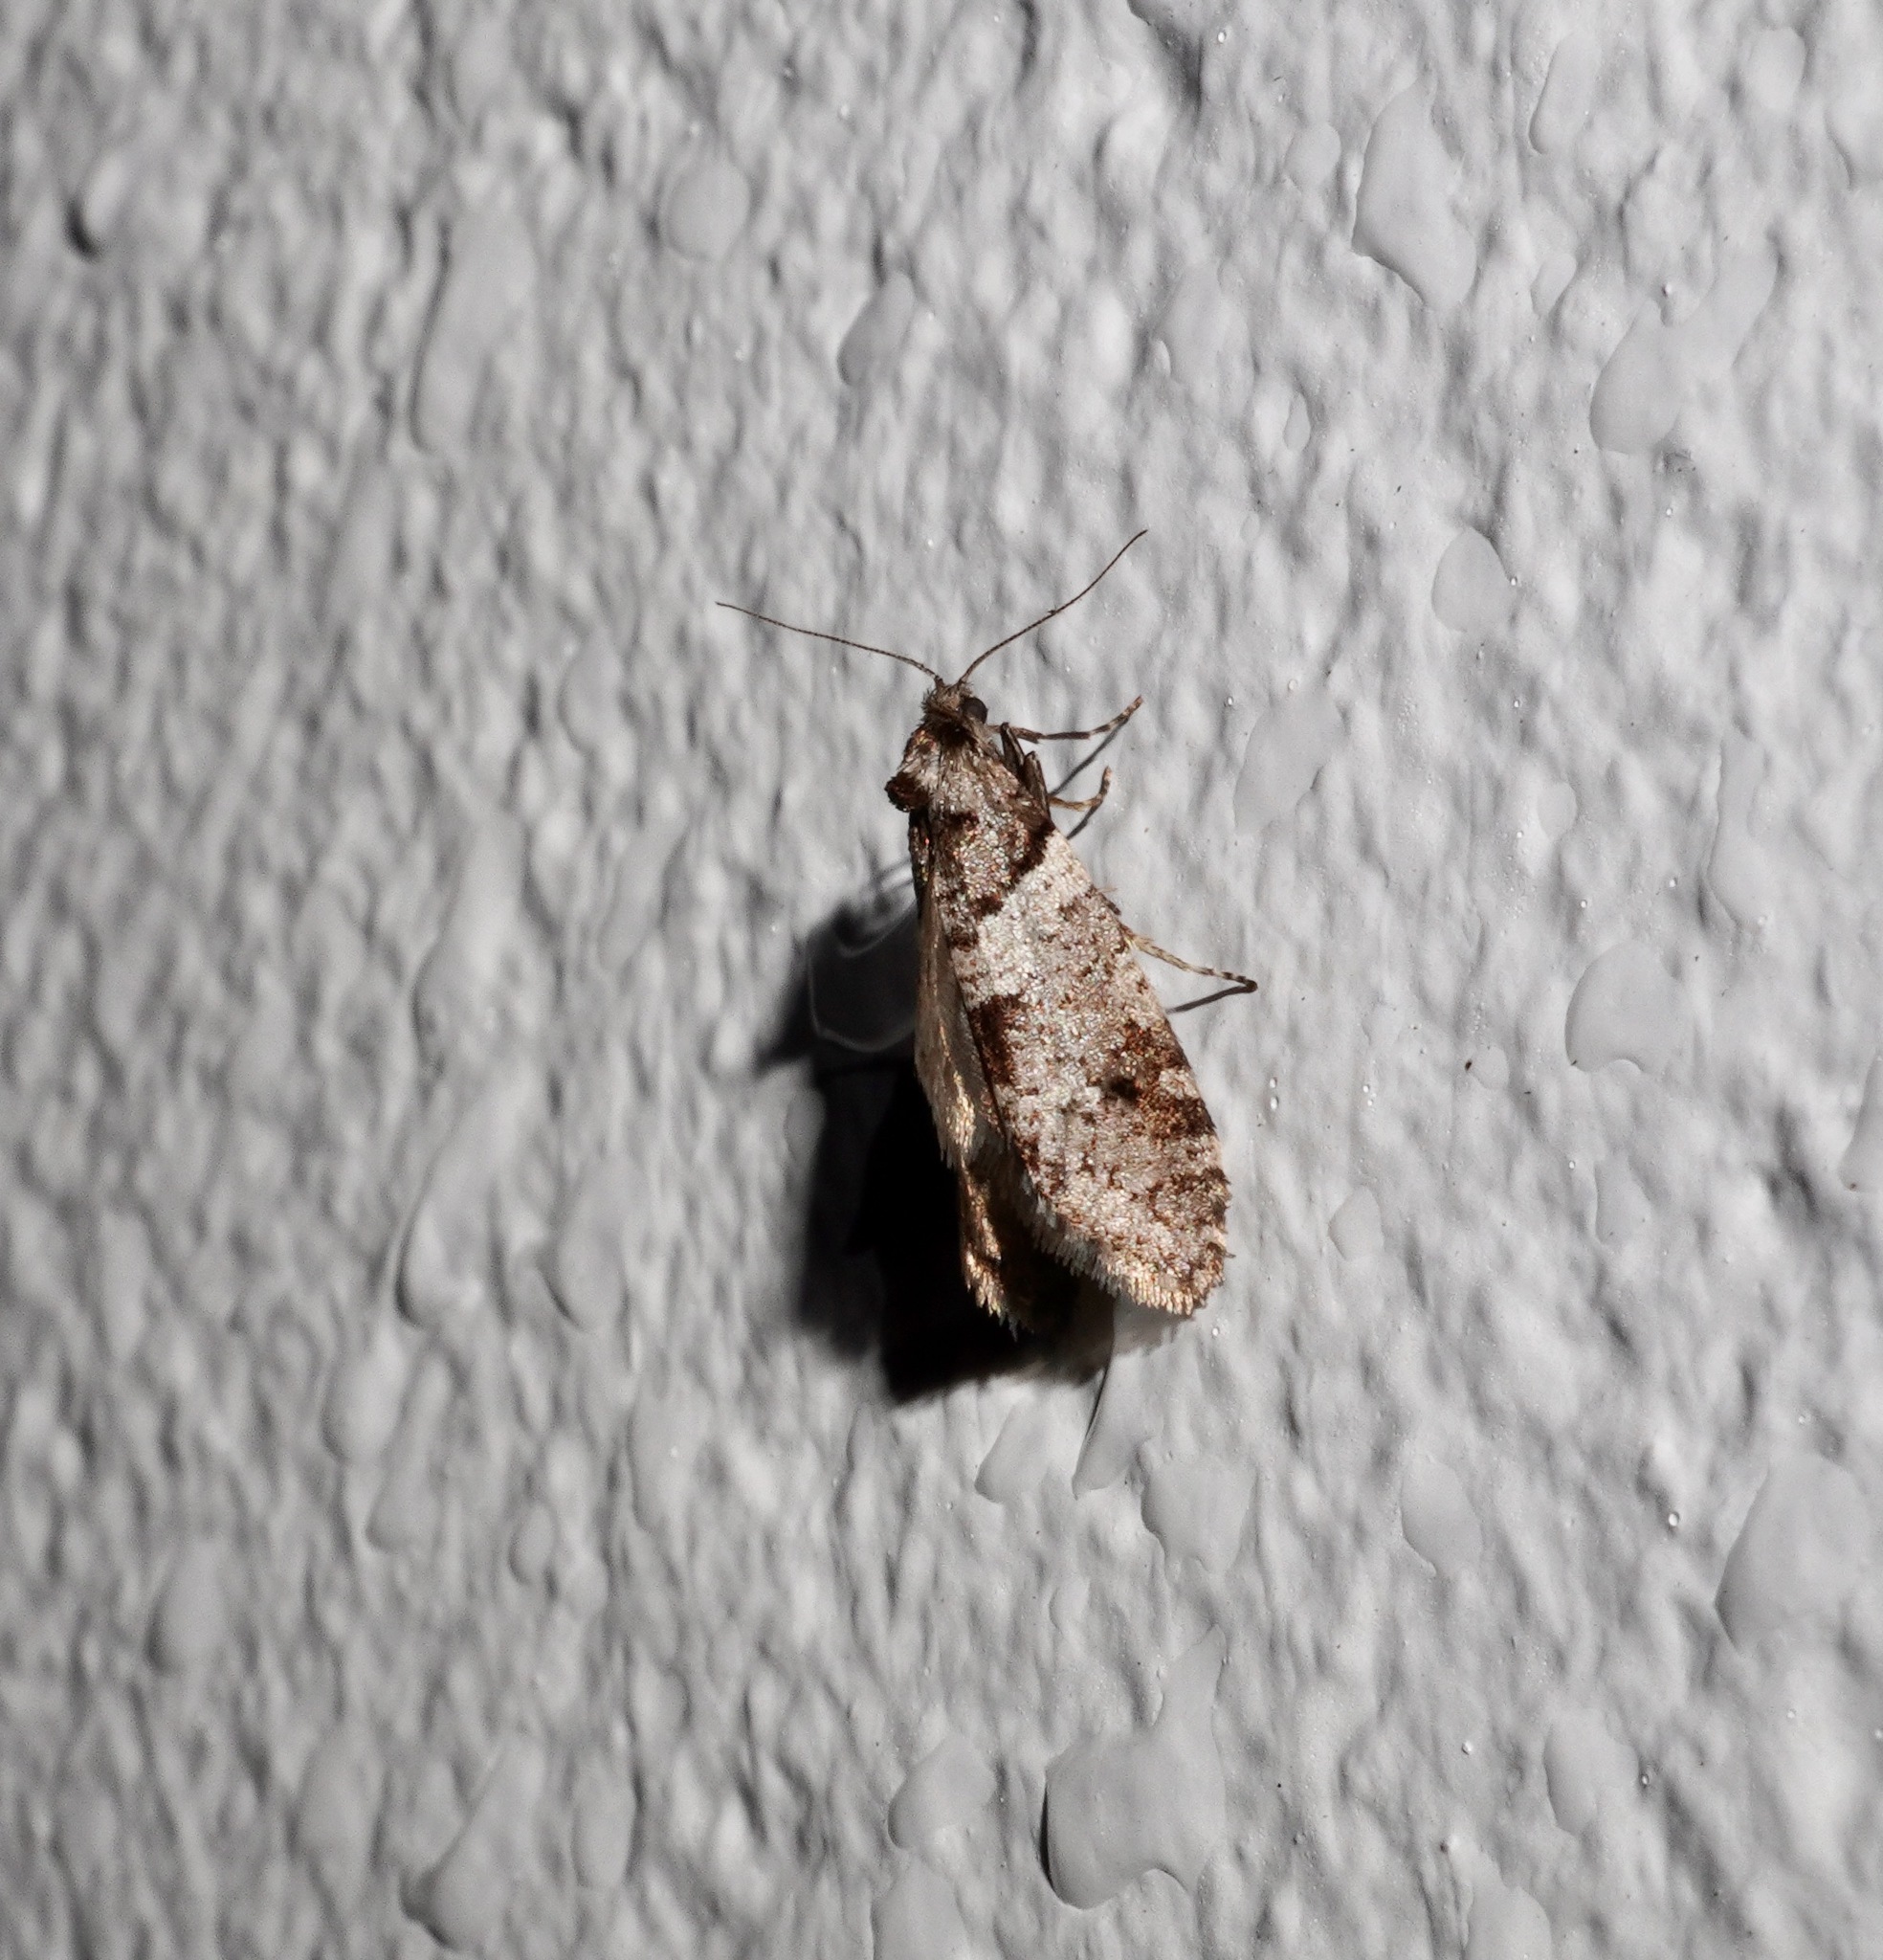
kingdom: Animalia
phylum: Arthropoda
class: Insecta
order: Lepidoptera
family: Psychidae
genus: Lepidoscia
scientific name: Lepidoscia heliochares
